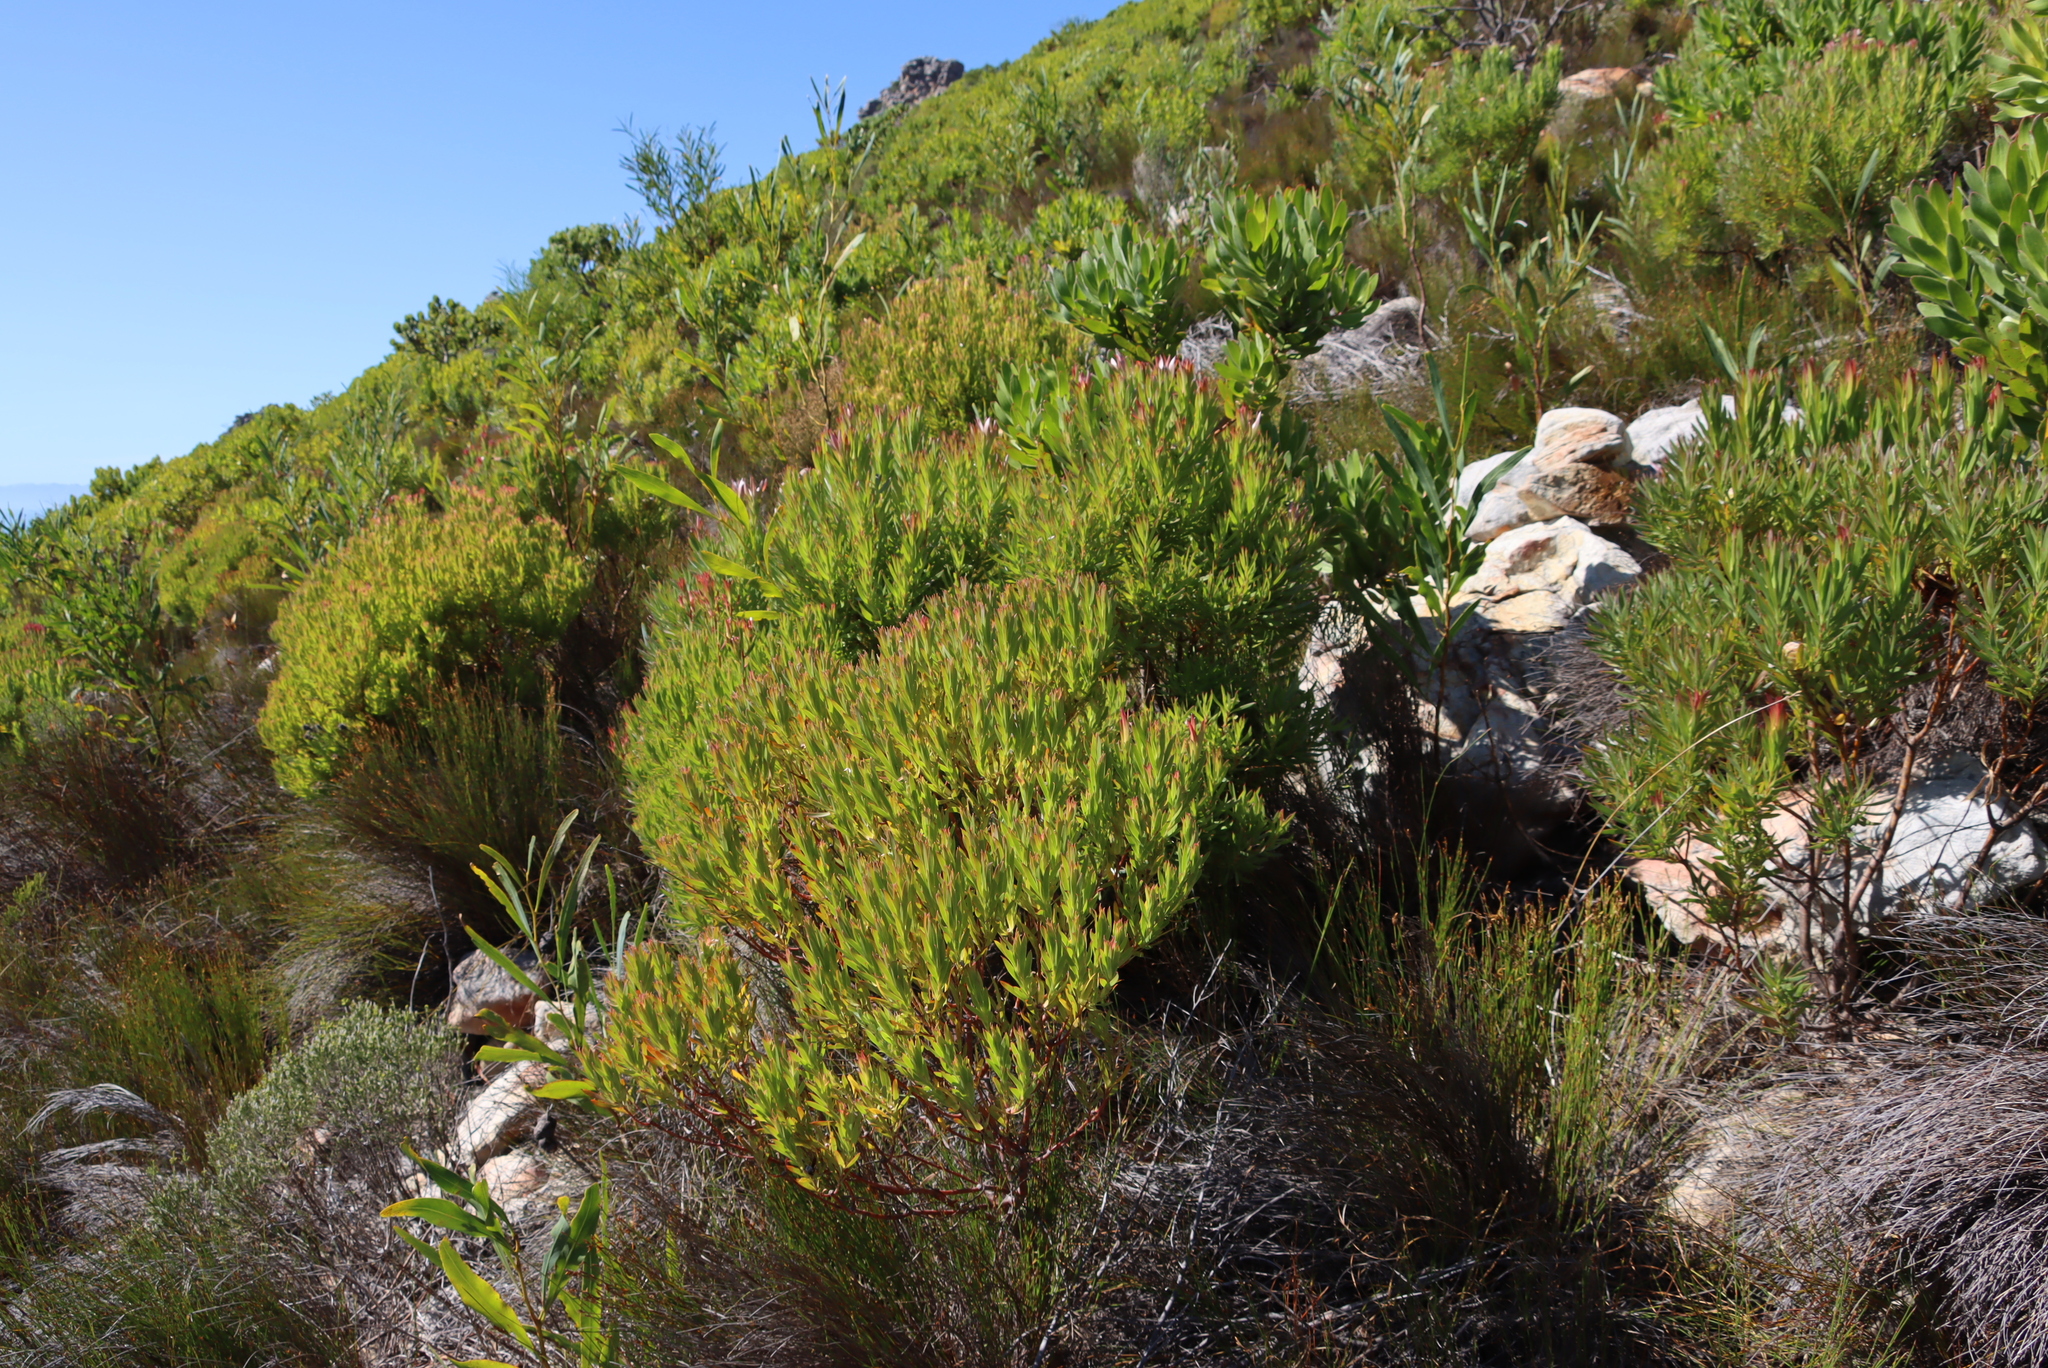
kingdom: Plantae
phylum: Tracheophyta
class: Magnoliopsida
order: Proteales
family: Proteaceae
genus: Leucadendron
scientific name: Leucadendron xanthoconus
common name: Sickle-leaf conebush
